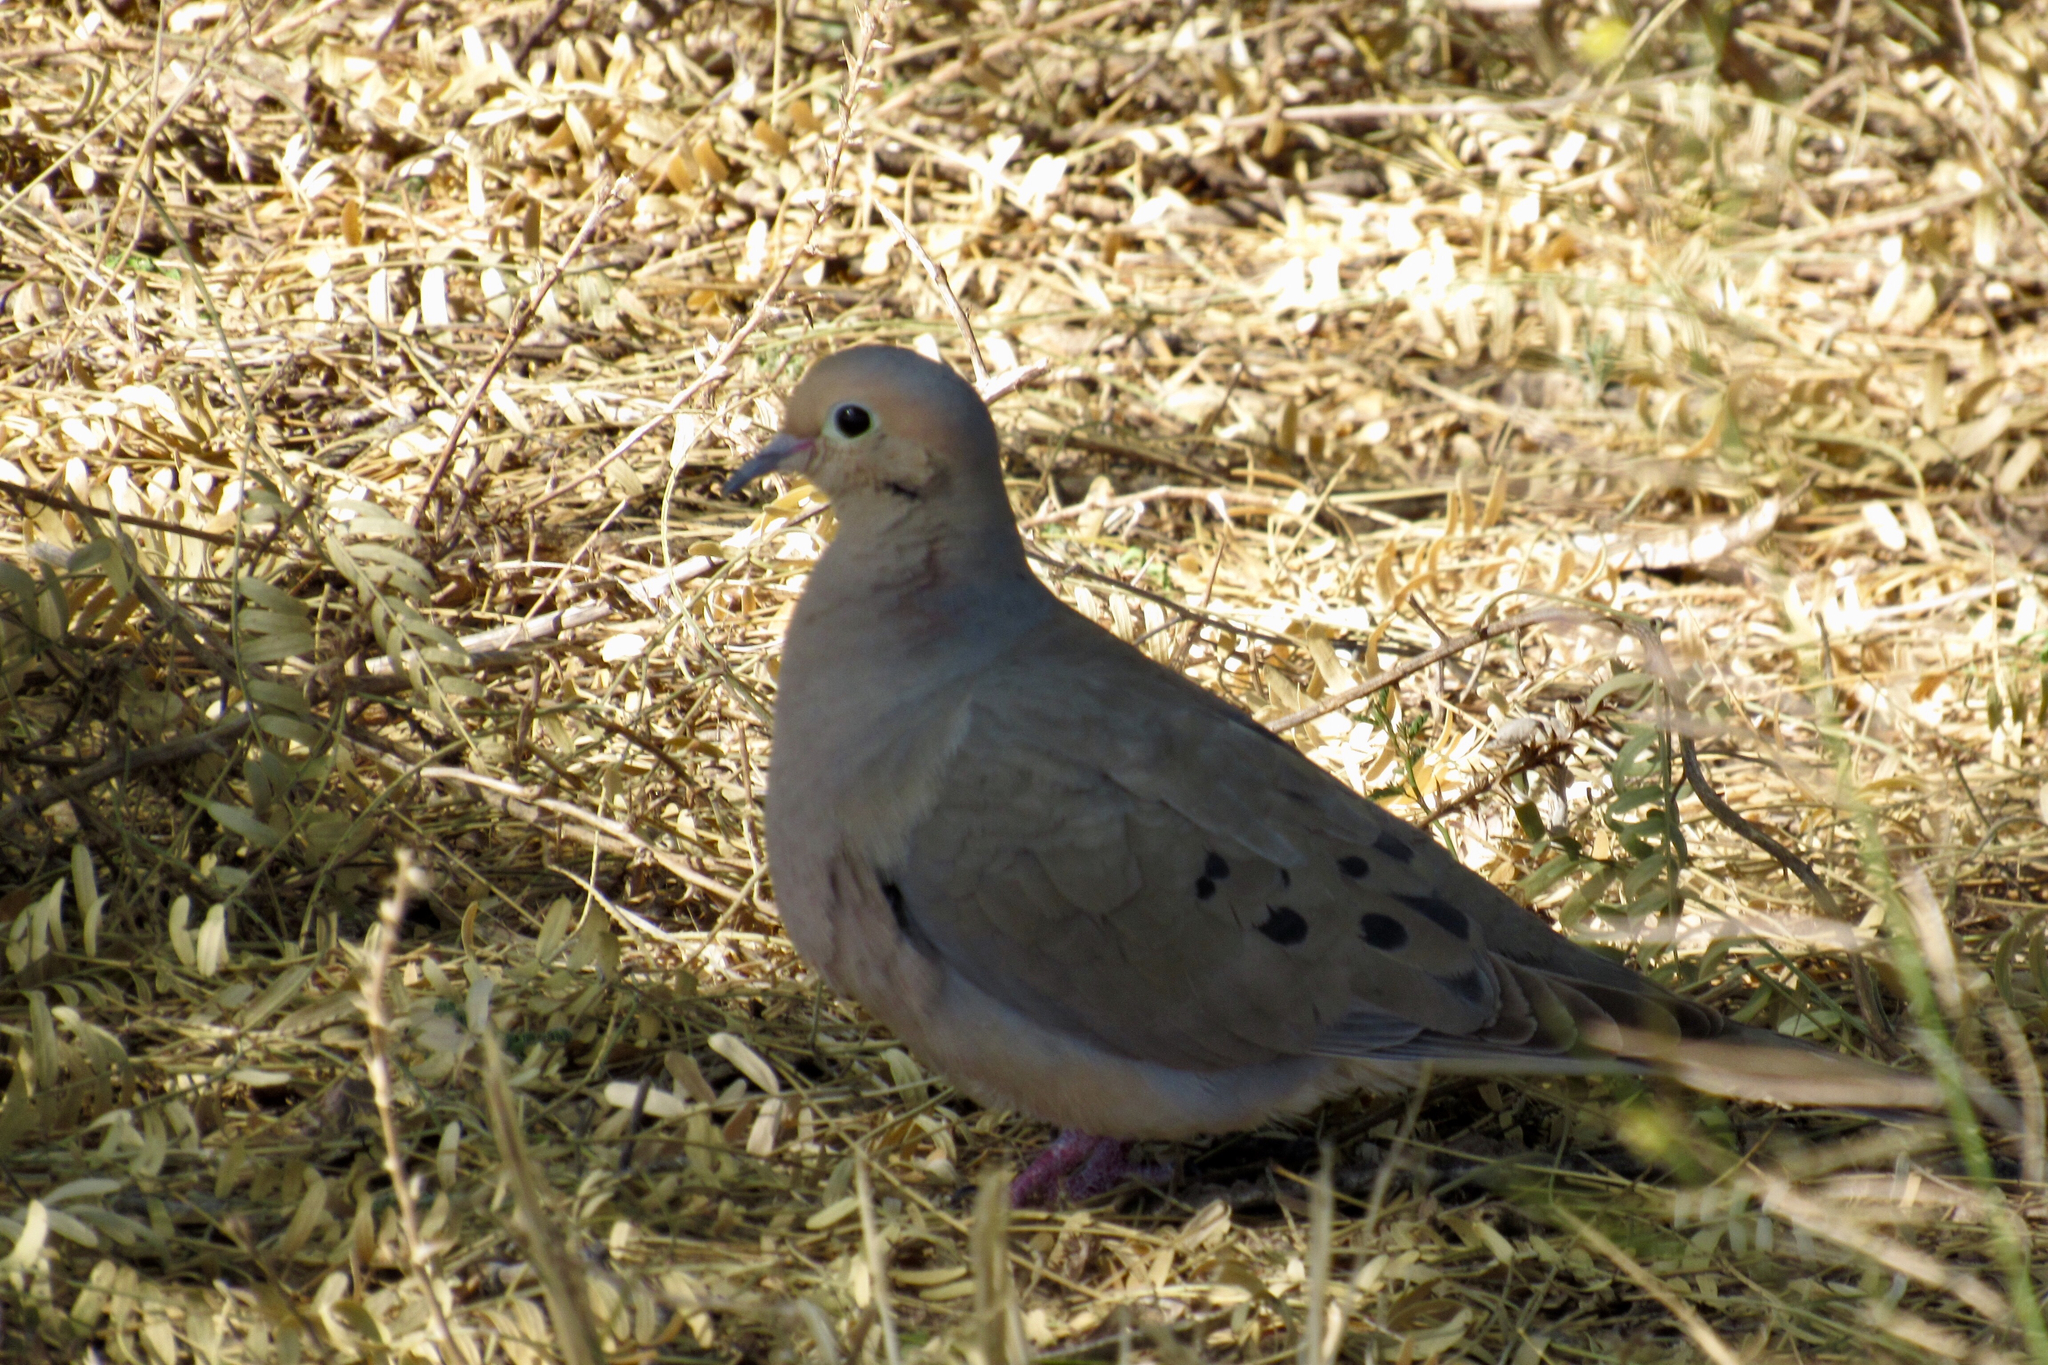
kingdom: Animalia
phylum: Chordata
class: Aves
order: Columbiformes
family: Columbidae
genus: Zenaida
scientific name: Zenaida macroura
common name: Mourning dove
